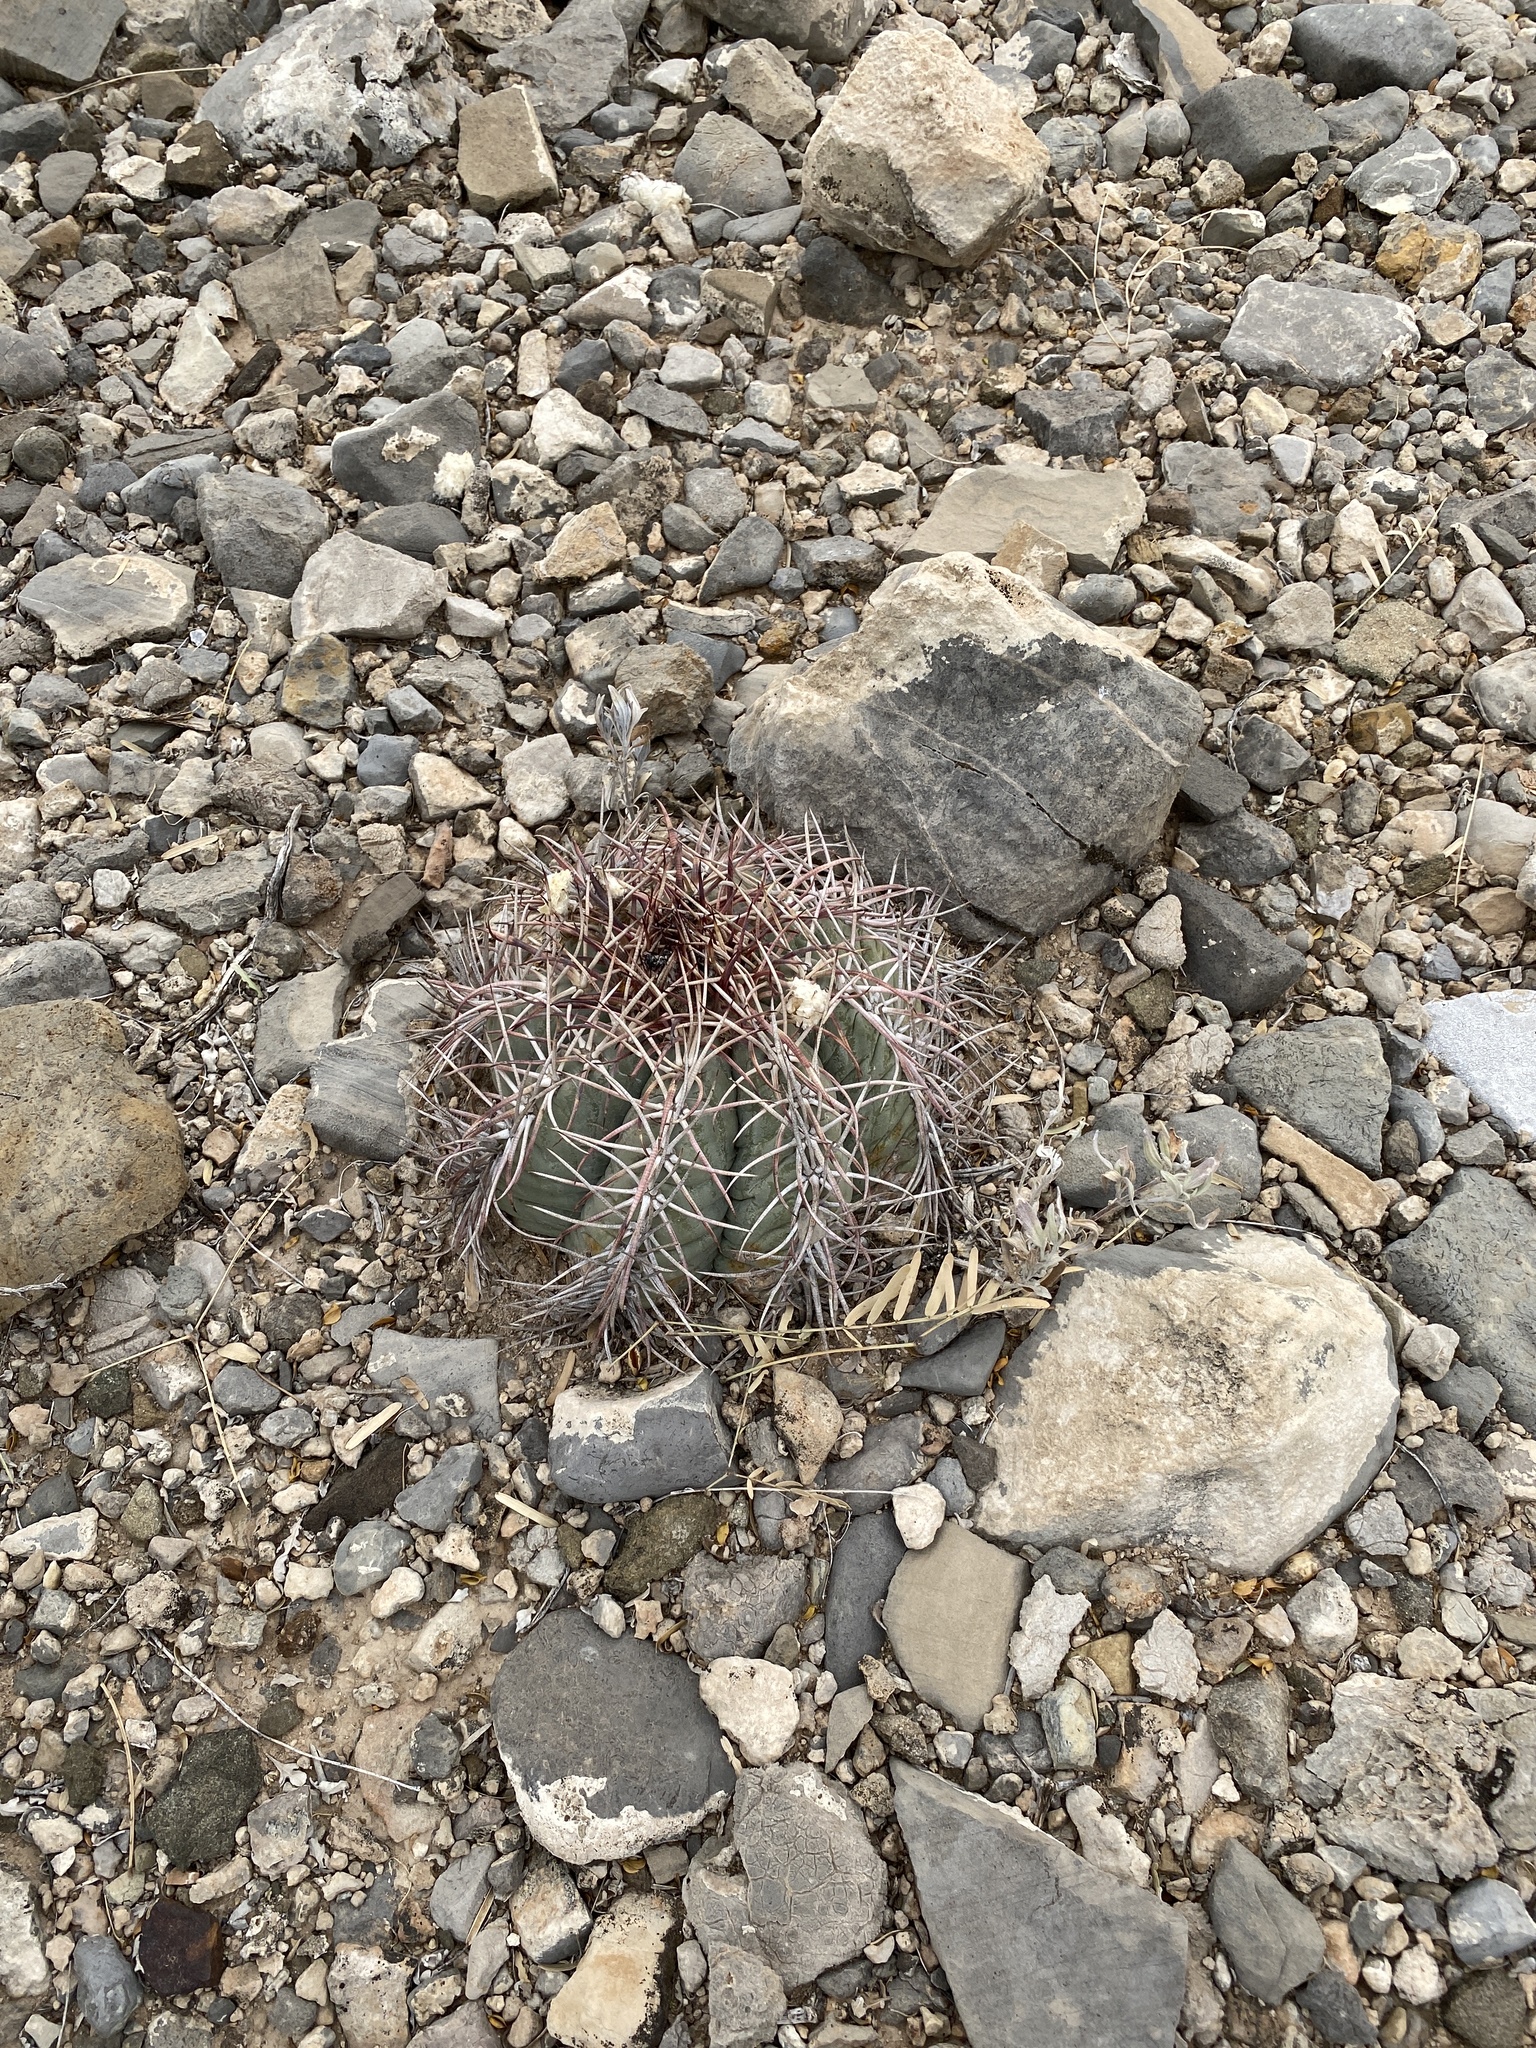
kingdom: Plantae
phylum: Tracheophyta
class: Magnoliopsida
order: Caryophyllales
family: Cactaceae
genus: Echinocactus
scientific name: Echinocactus horizonthalonius
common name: Devilshead
